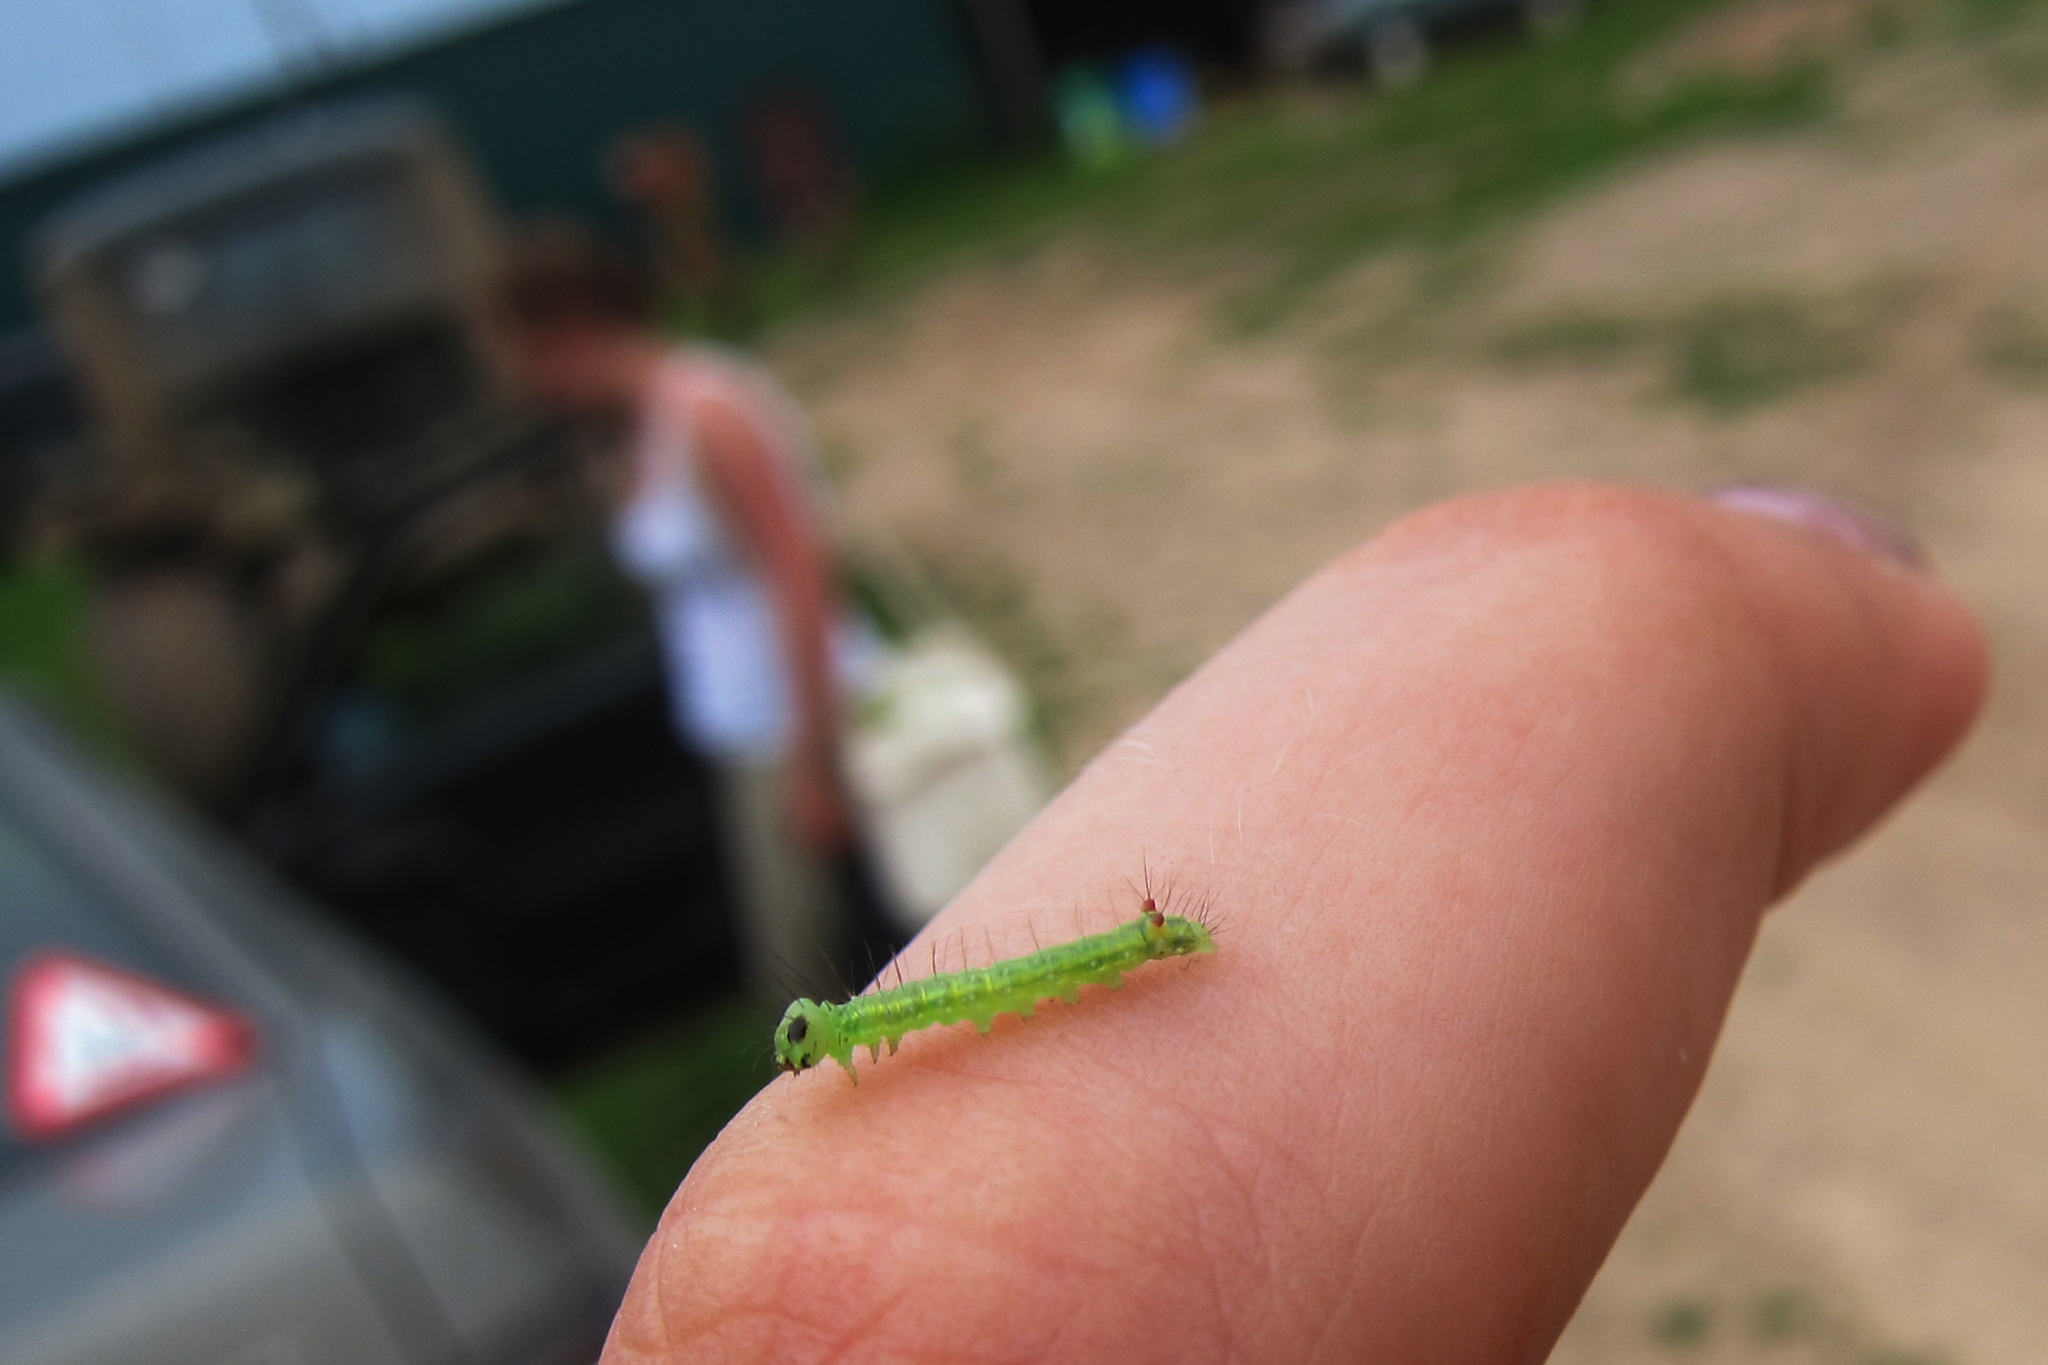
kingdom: Animalia
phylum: Arthropoda
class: Insecta
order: Lepidoptera
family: Notodontidae
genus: Ptilodon
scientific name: Ptilodon capucina
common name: Coxcomb prominent
